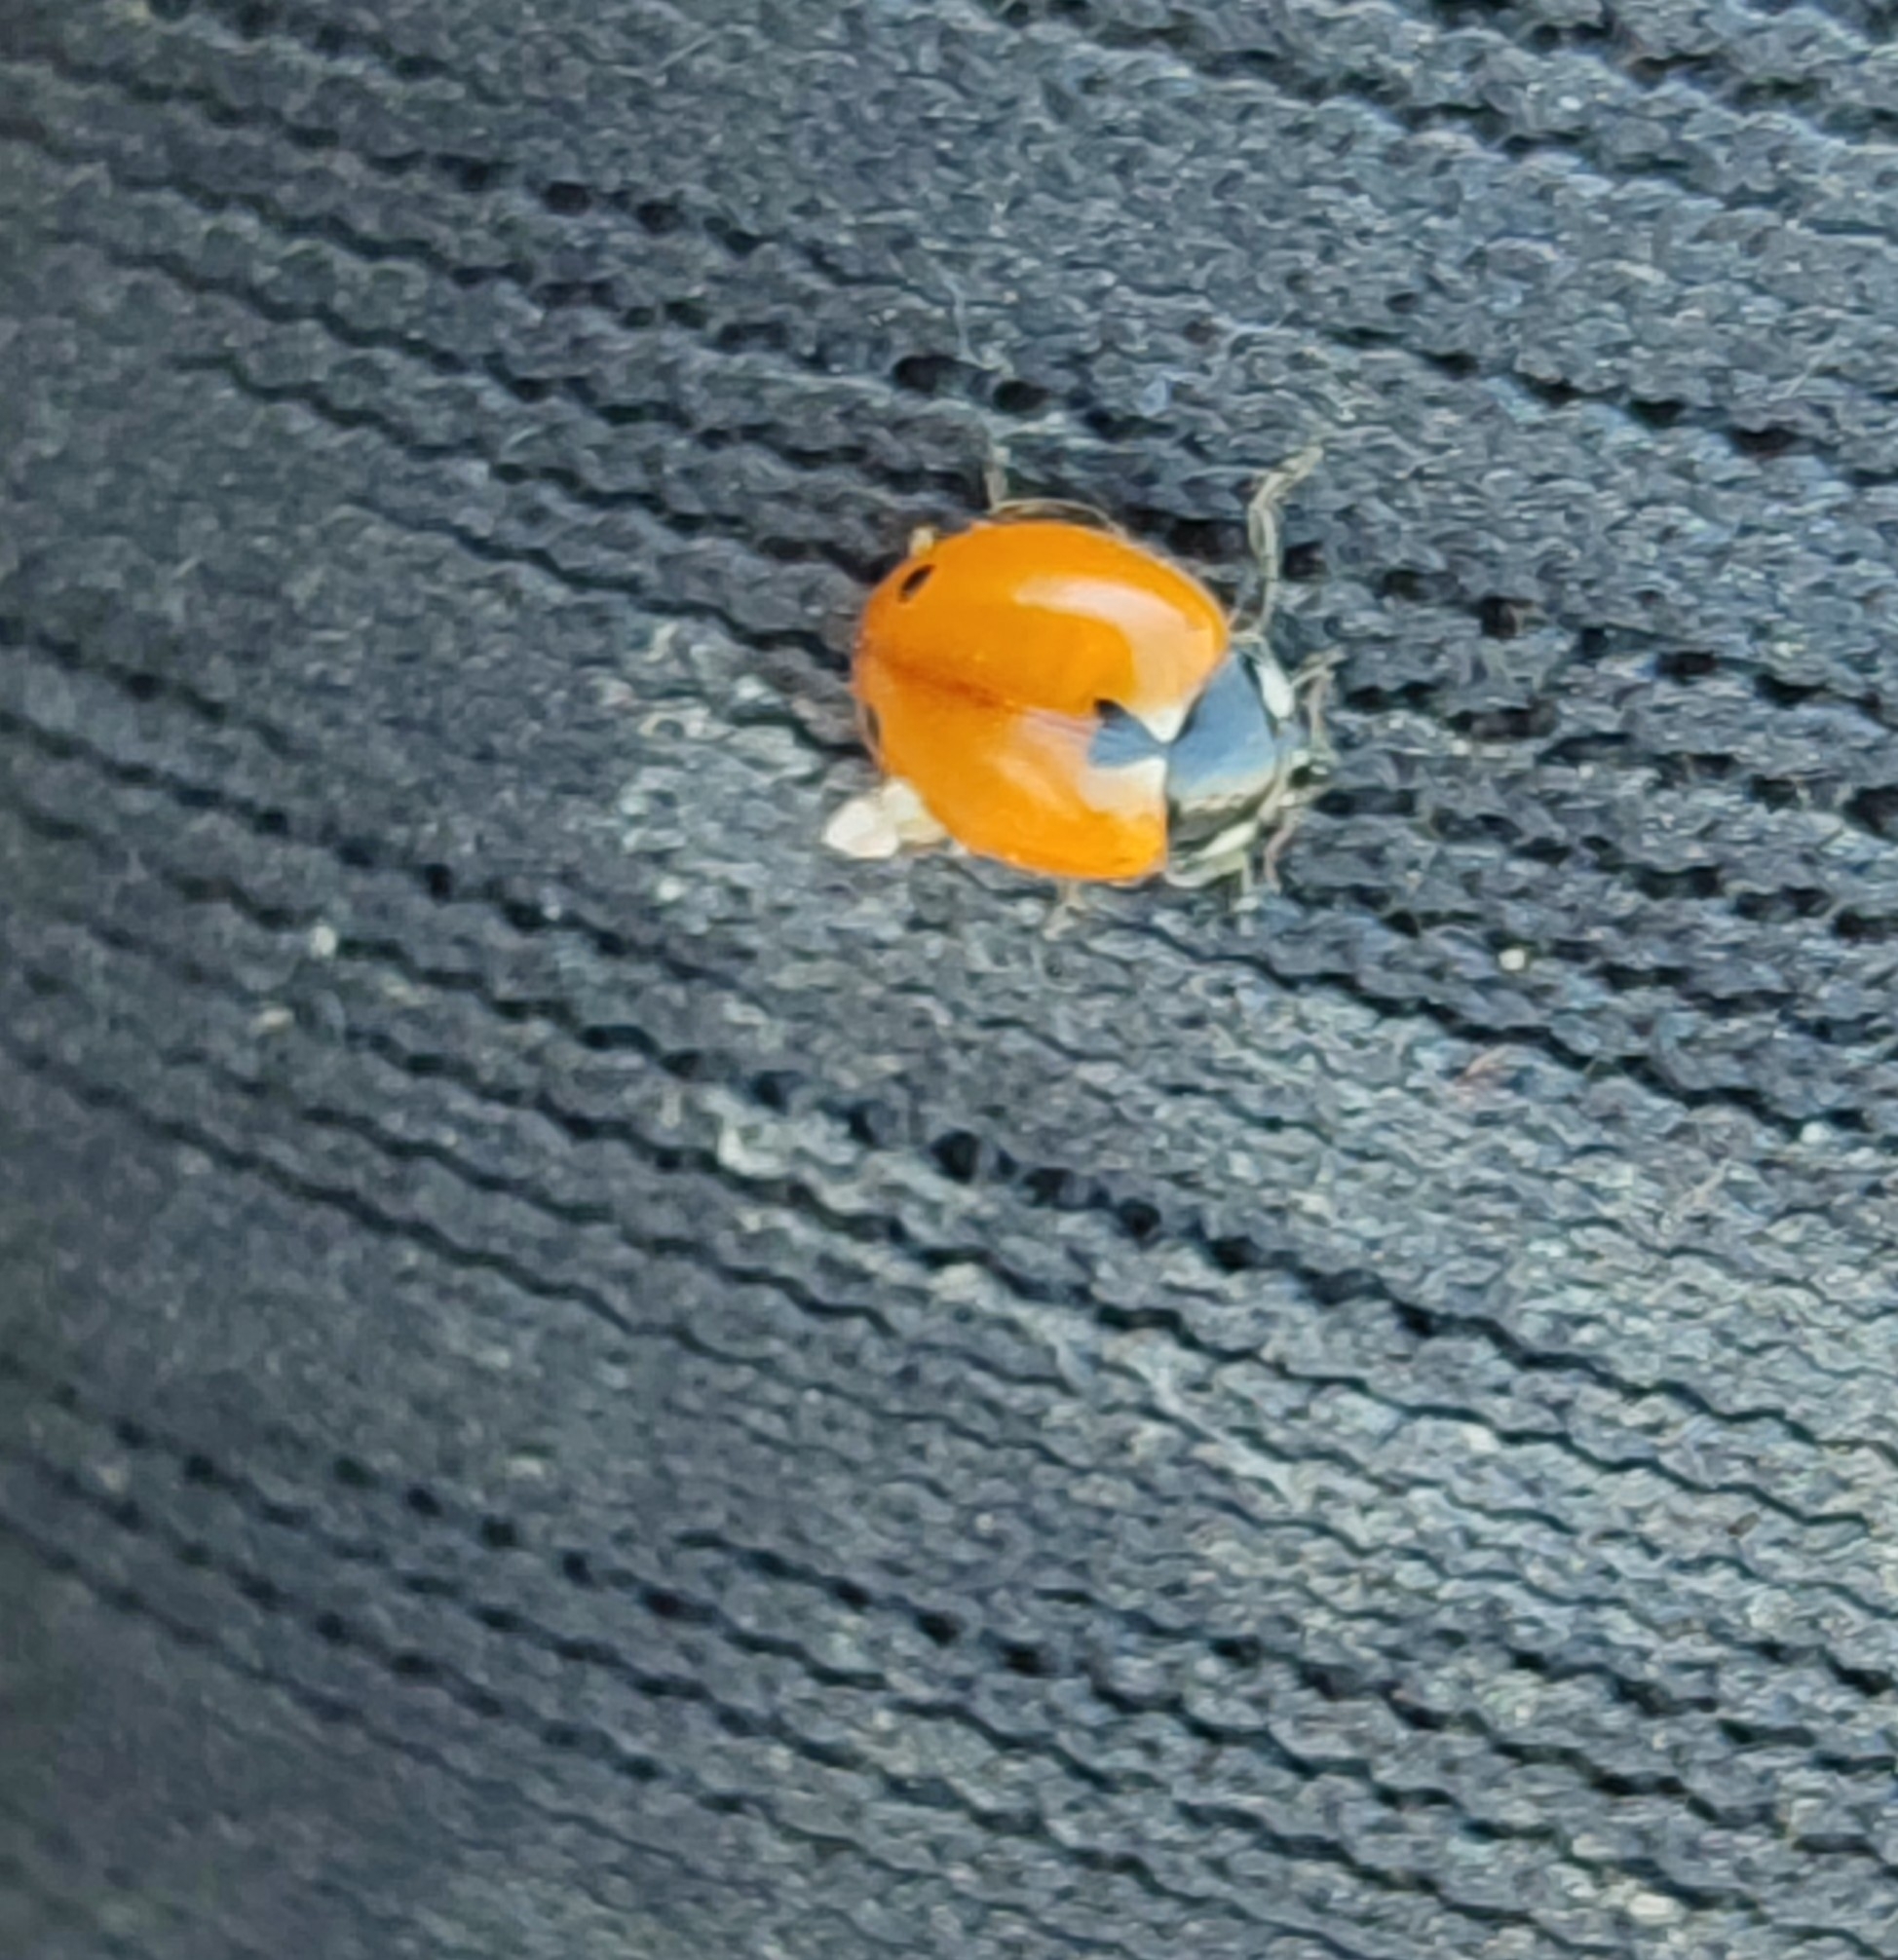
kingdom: Animalia
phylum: Arthropoda
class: Insecta
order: Coleoptera
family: Coccinellidae
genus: Coccinella
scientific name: Coccinella undecimpunctata
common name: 11-spot ladybird
